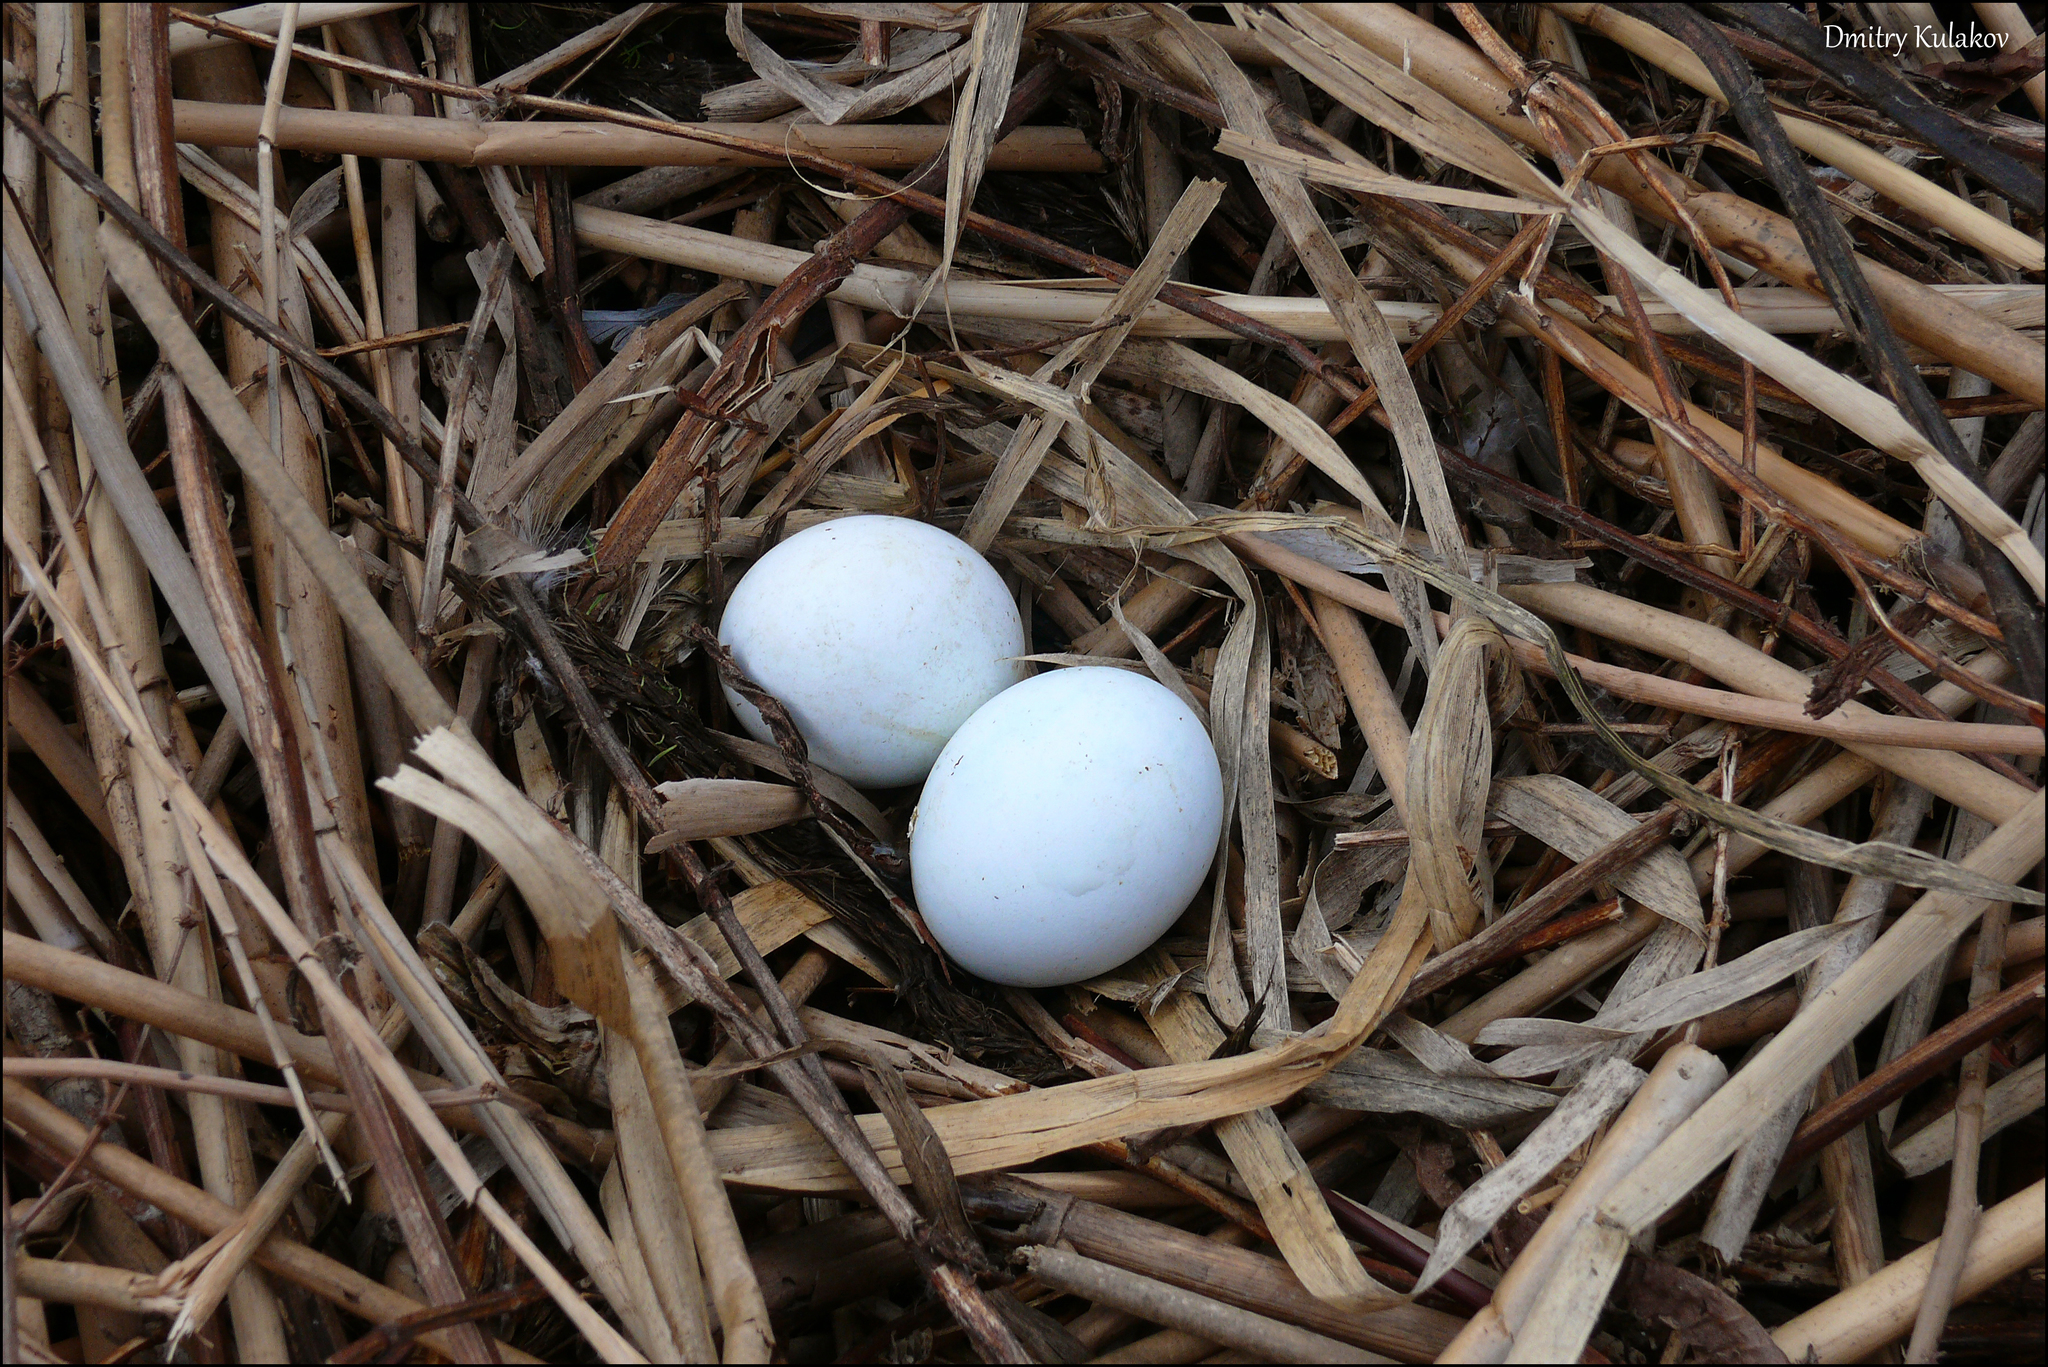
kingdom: Animalia
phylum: Chordata
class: Aves
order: Accipitriformes
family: Accipitridae
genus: Circus
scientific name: Circus aeruginosus
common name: Western marsh harrier
